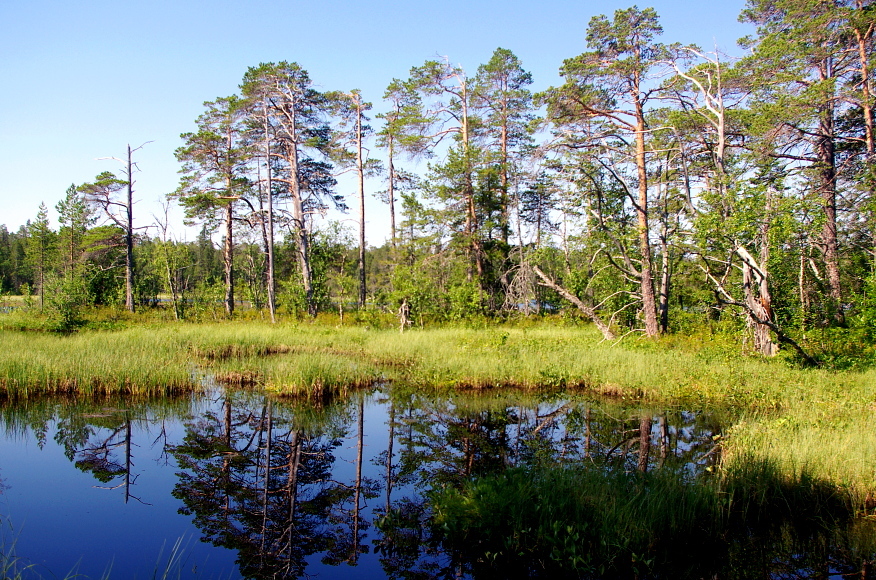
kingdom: Plantae
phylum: Tracheophyta
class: Pinopsida
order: Pinales
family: Pinaceae
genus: Pinus
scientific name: Pinus sylvestris
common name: Scots pine
